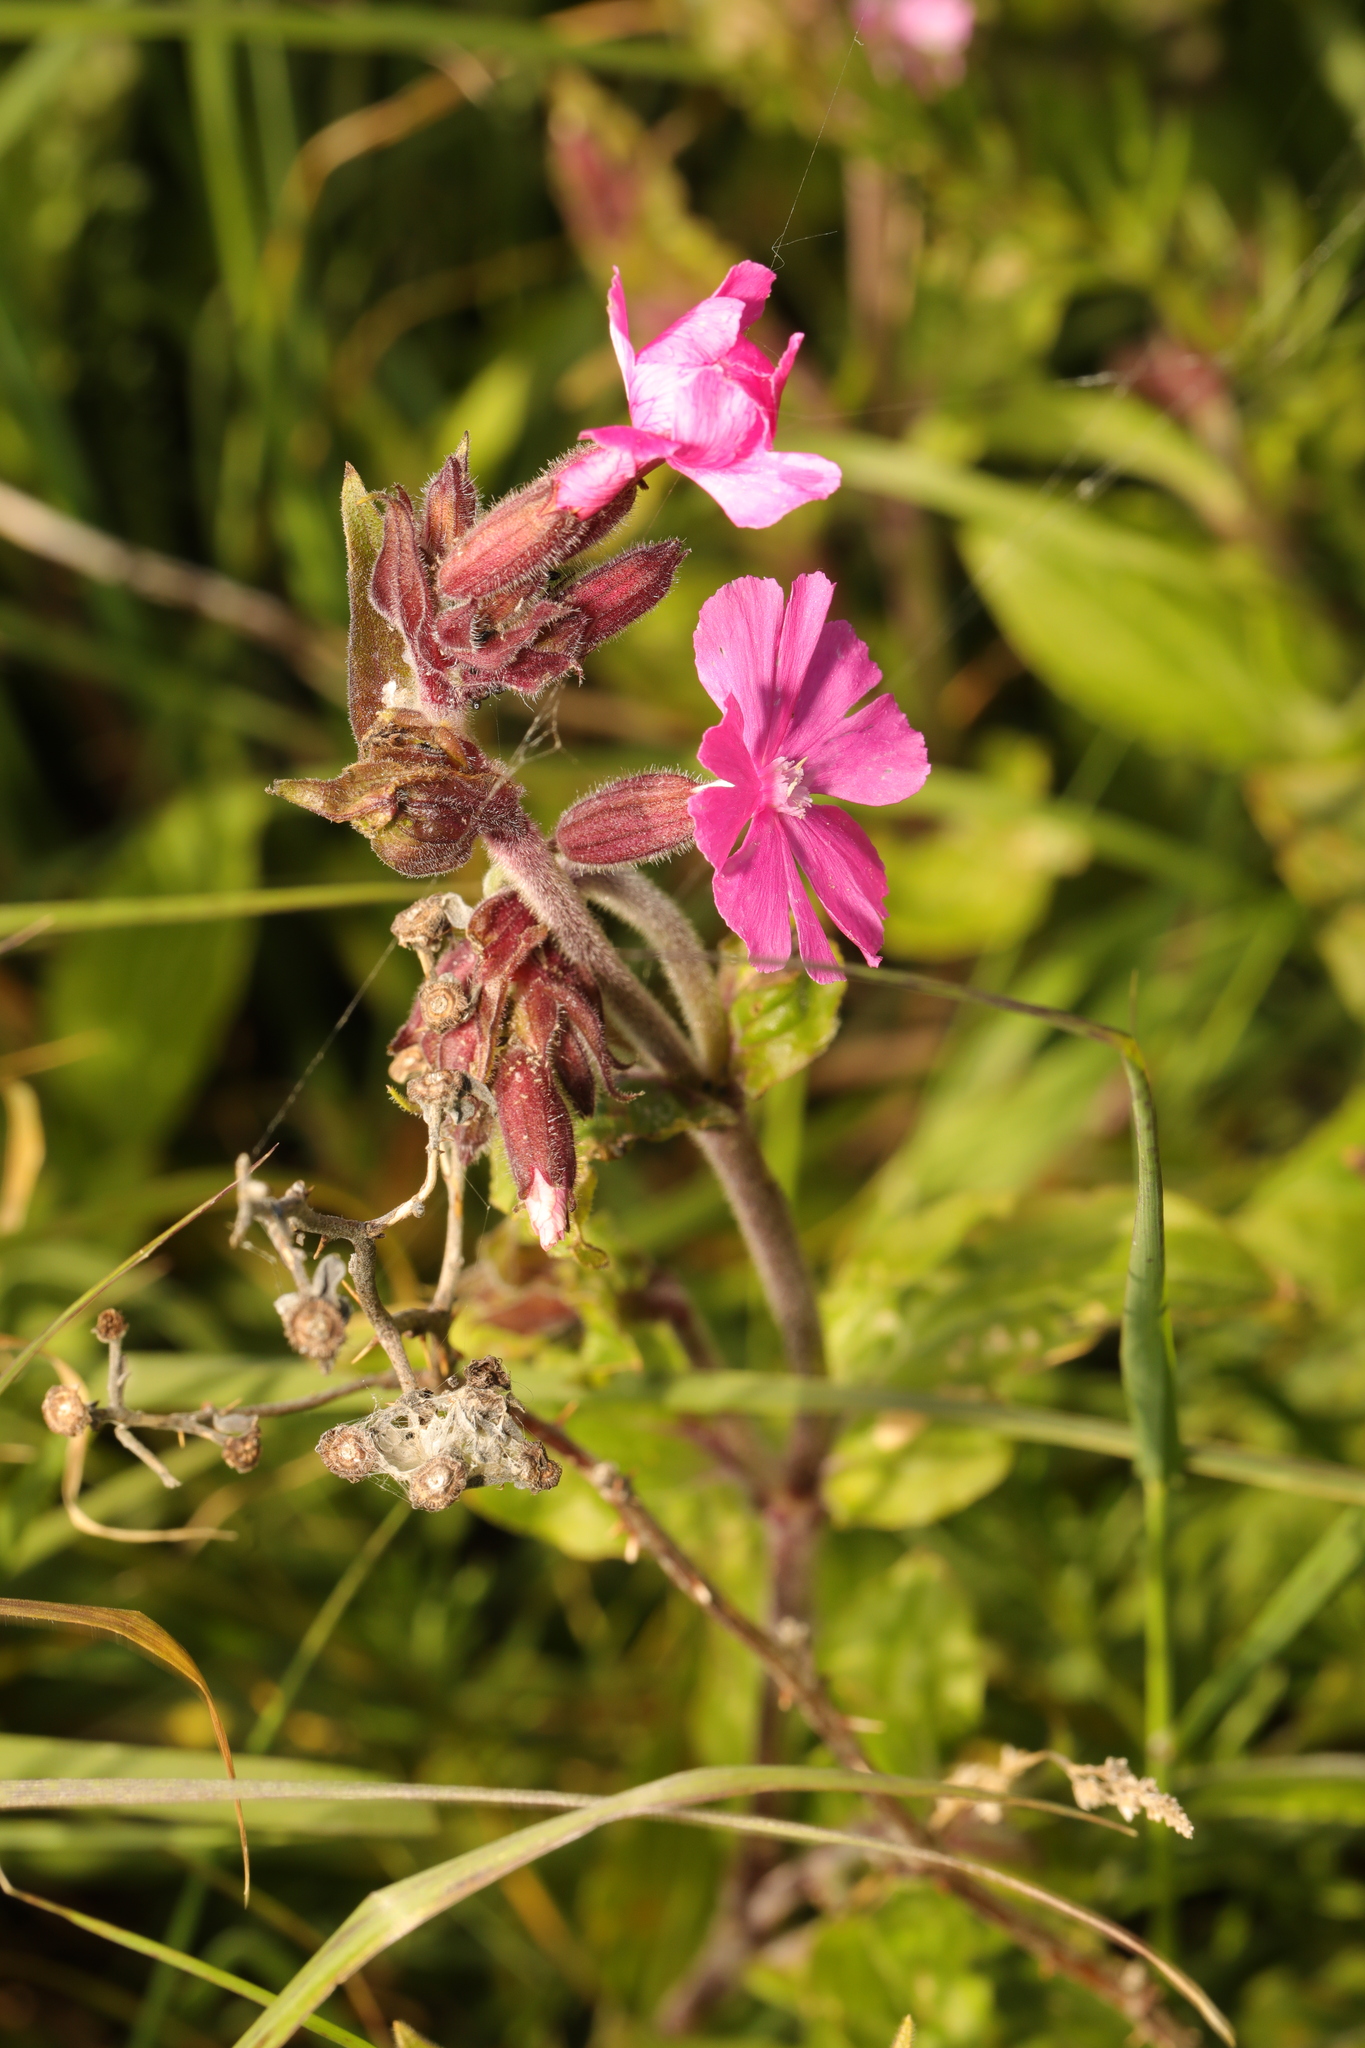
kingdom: Plantae
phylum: Tracheophyta
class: Magnoliopsida
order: Caryophyllales
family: Caryophyllaceae
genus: Silene
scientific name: Silene dioica
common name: Red campion
